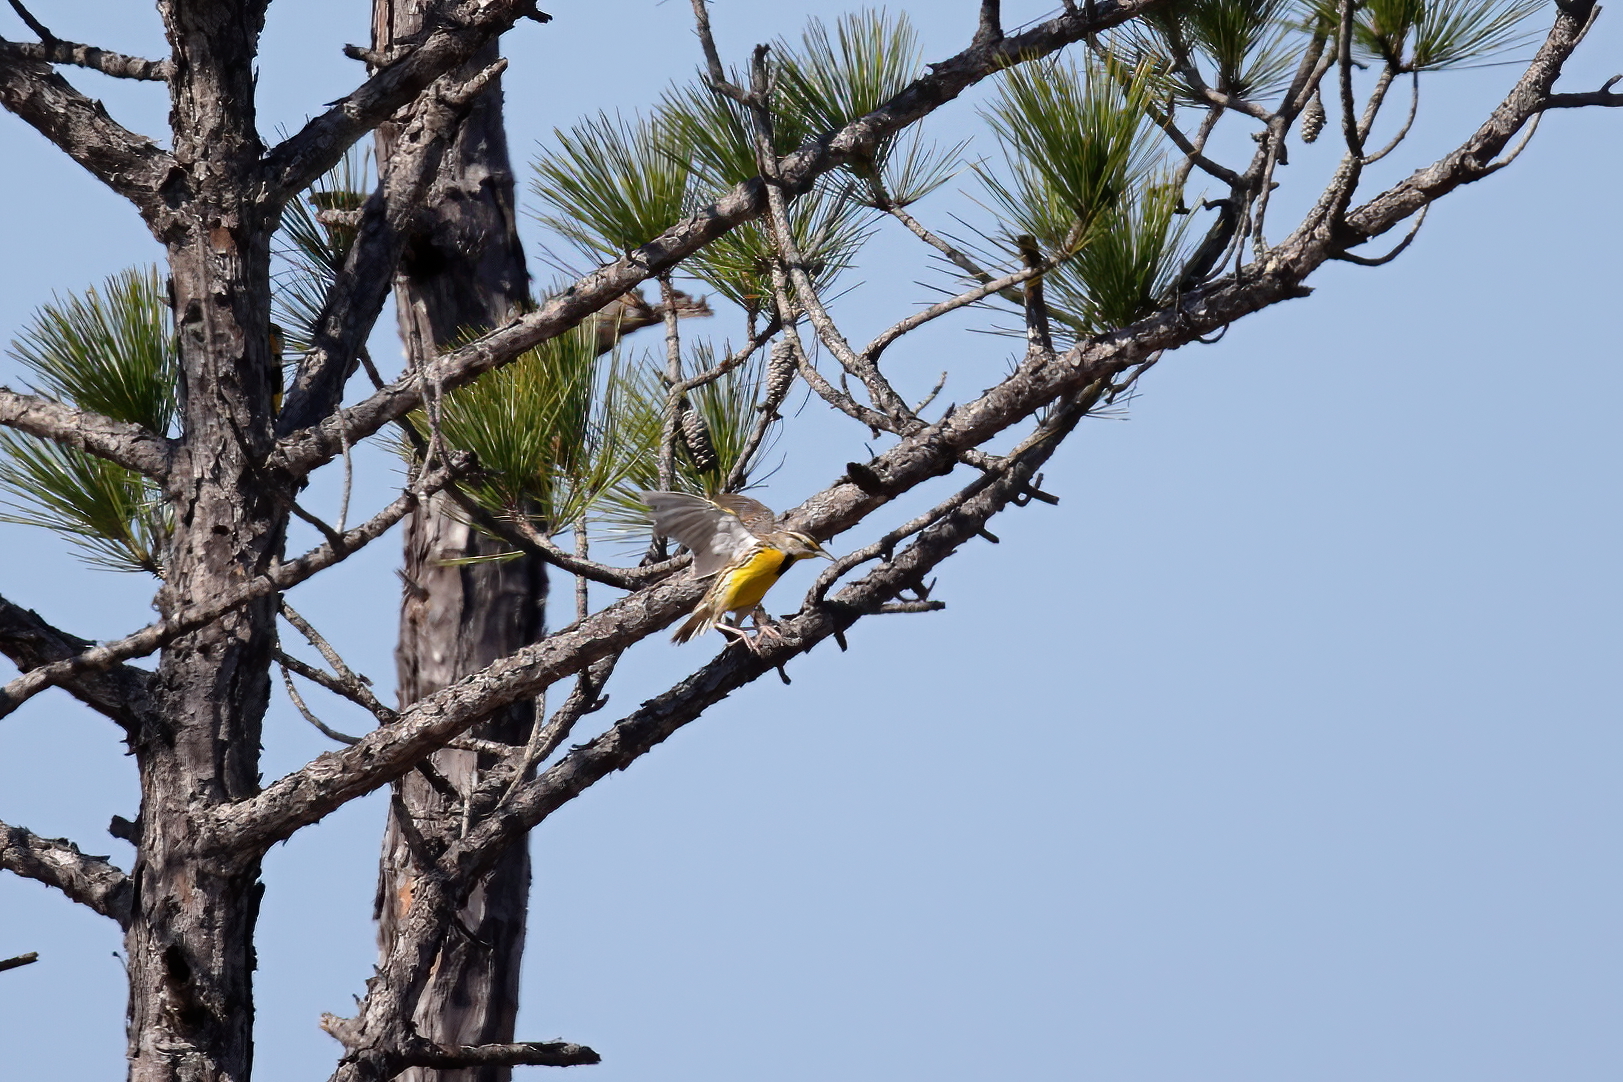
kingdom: Animalia
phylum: Chordata
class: Aves
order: Passeriformes
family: Icteridae
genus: Sturnella
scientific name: Sturnella magna
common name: Eastern meadowlark
